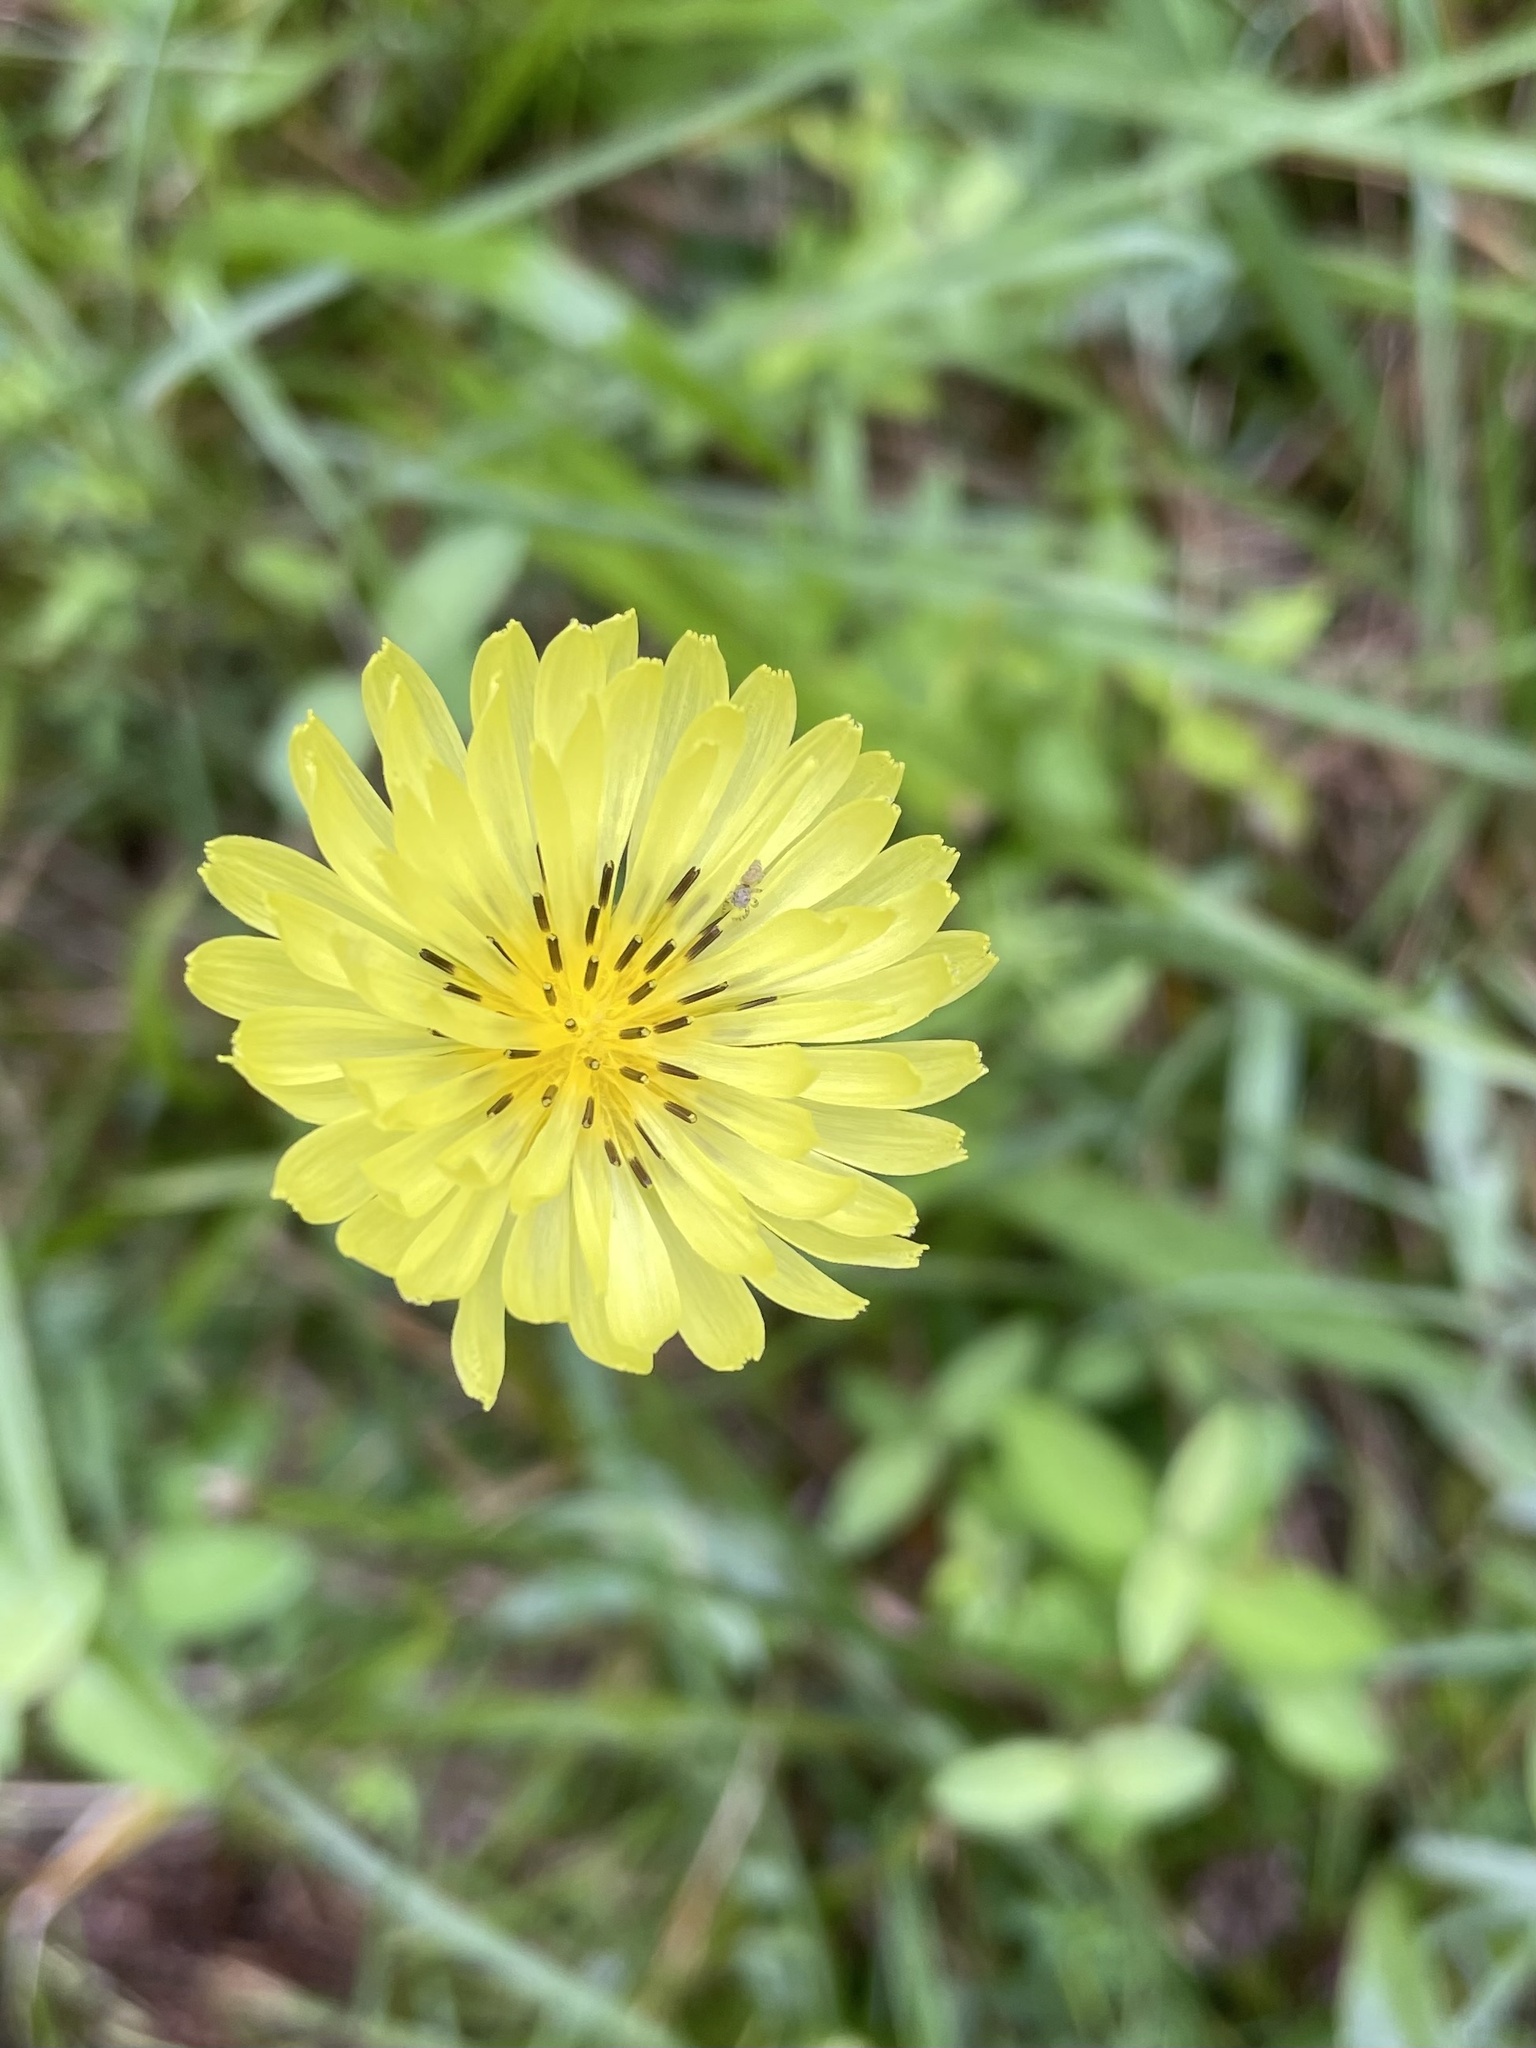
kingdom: Plantae
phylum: Tracheophyta
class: Magnoliopsida
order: Asterales
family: Asteraceae
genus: Pyrrhopappus
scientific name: Pyrrhopappus carolinianus
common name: Carolina desert-chicory
